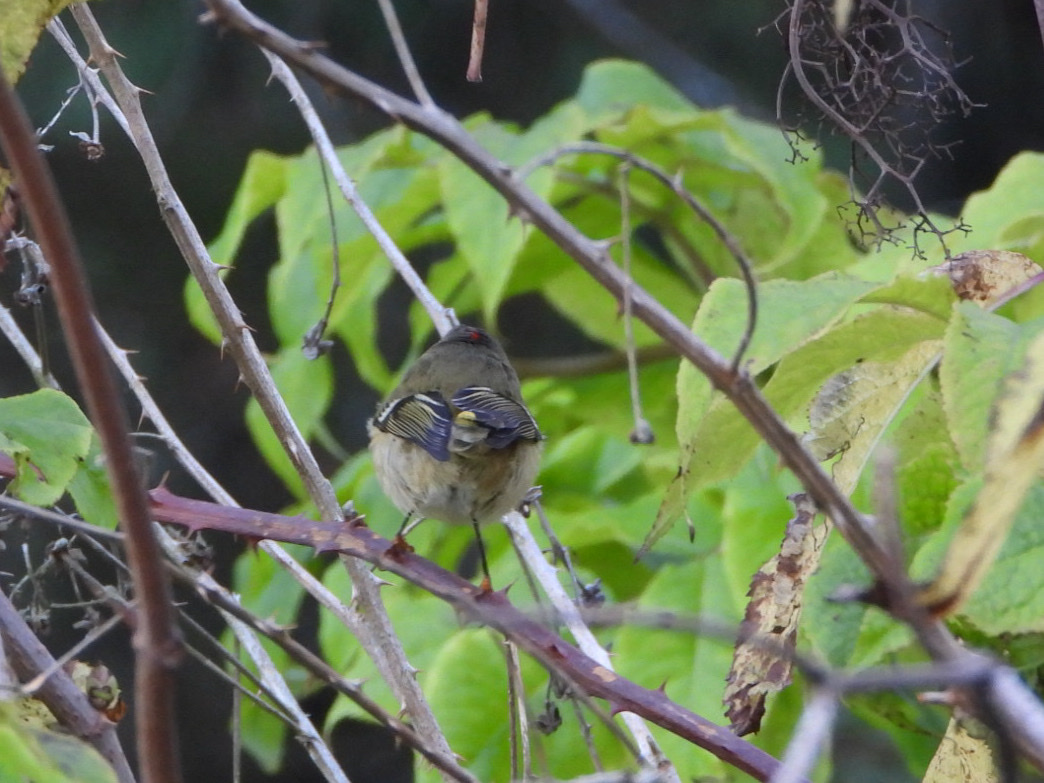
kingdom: Animalia
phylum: Chordata
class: Aves
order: Passeriformes
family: Regulidae
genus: Regulus
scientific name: Regulus calendula
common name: Ruby-crowned kinglet
